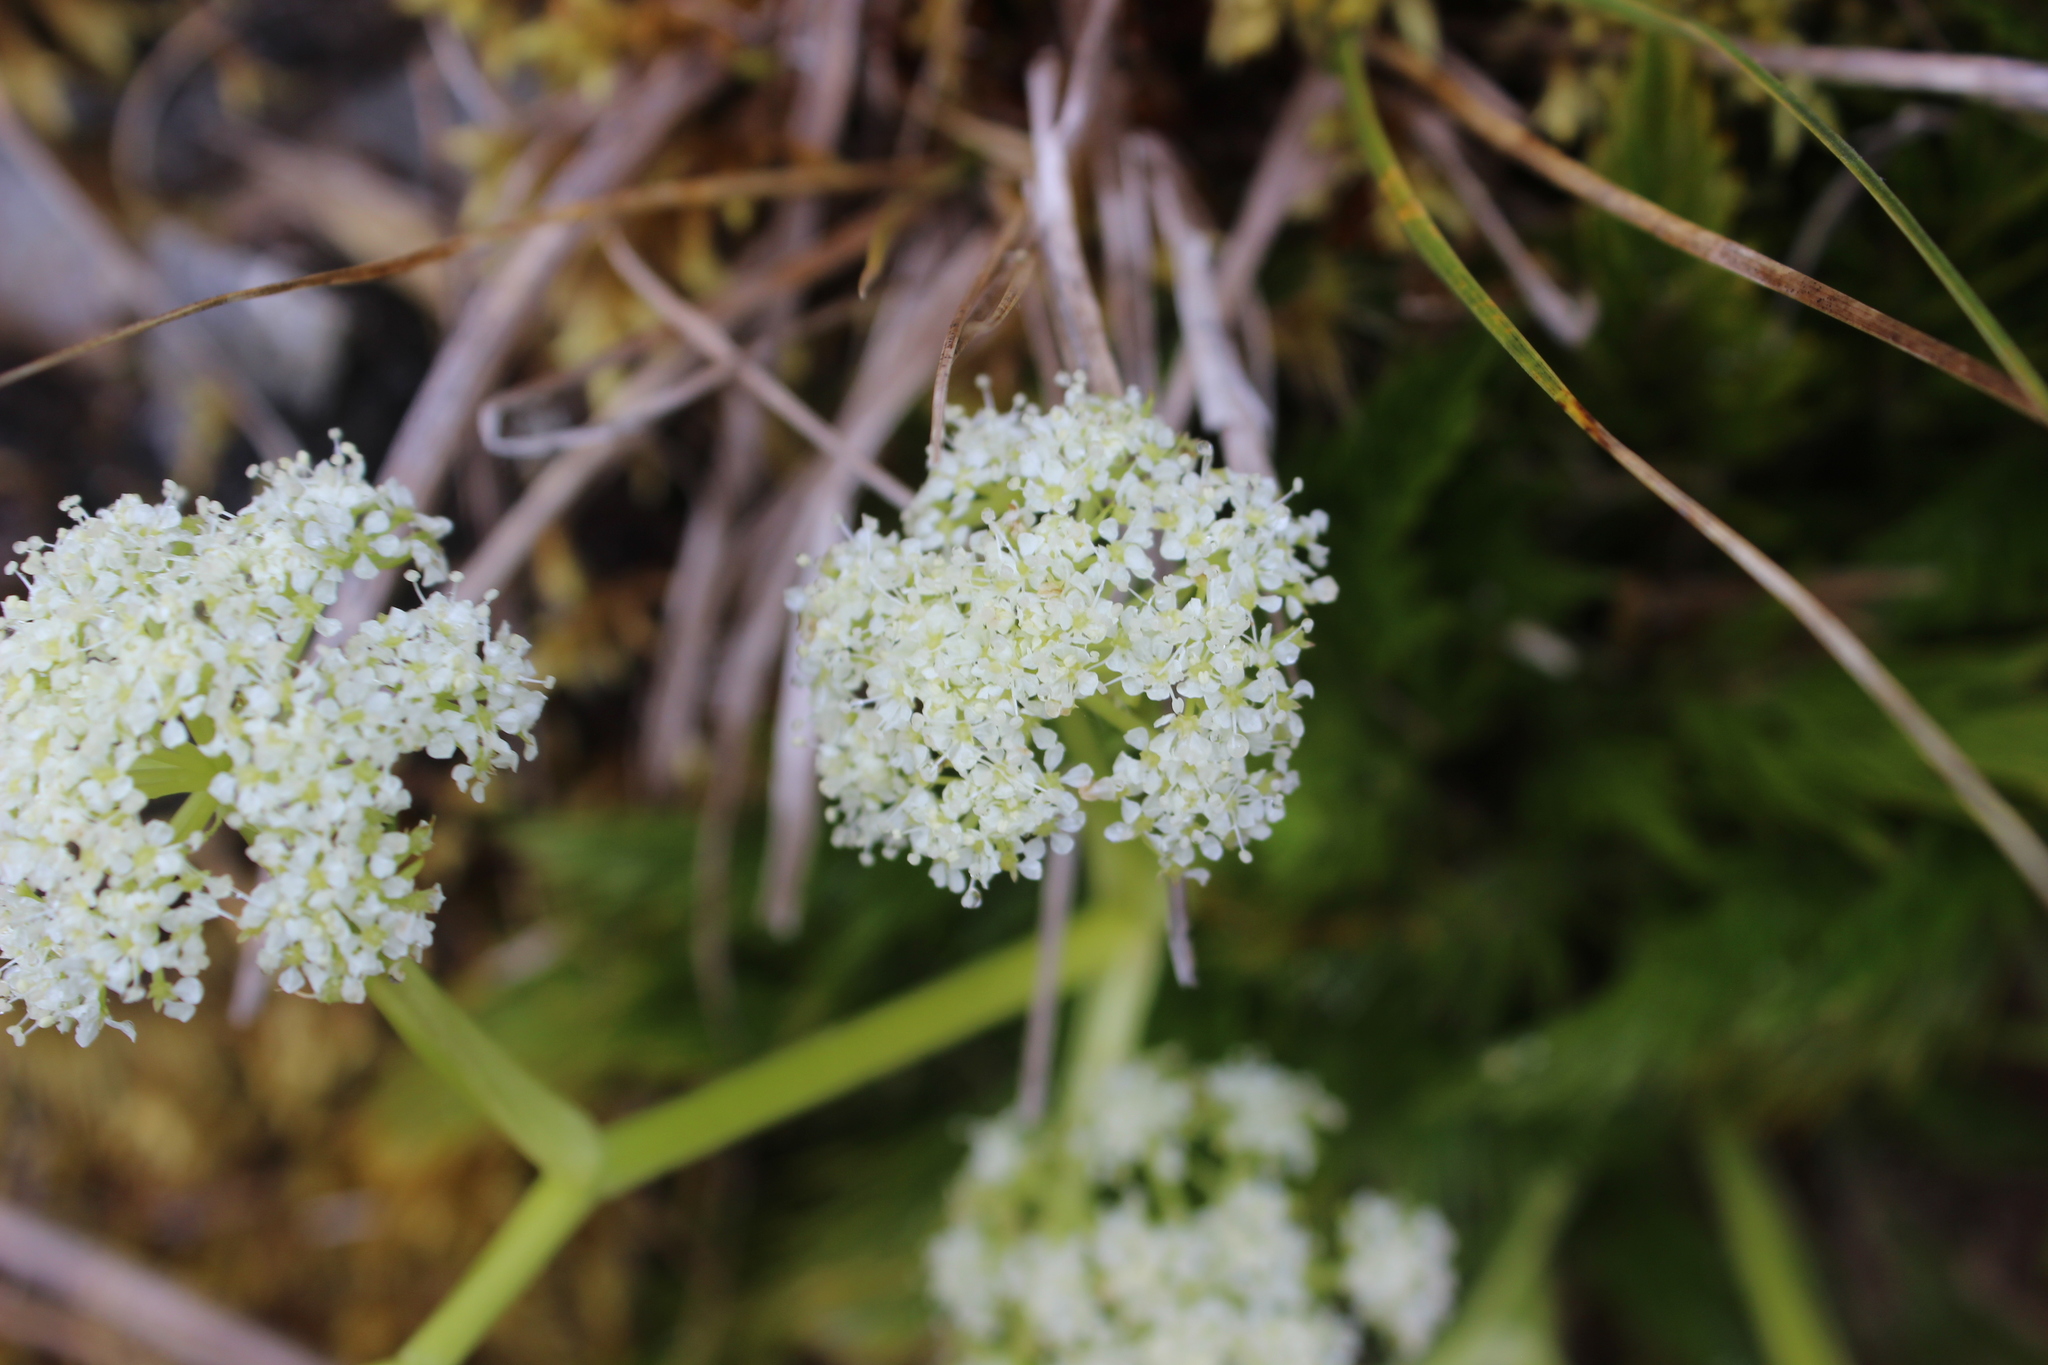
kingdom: Plantae
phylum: Tracheophyta
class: Magnoliopsida
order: Apiales
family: Apiaceae
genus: Aciphylla
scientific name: Aciphylla dissecta
